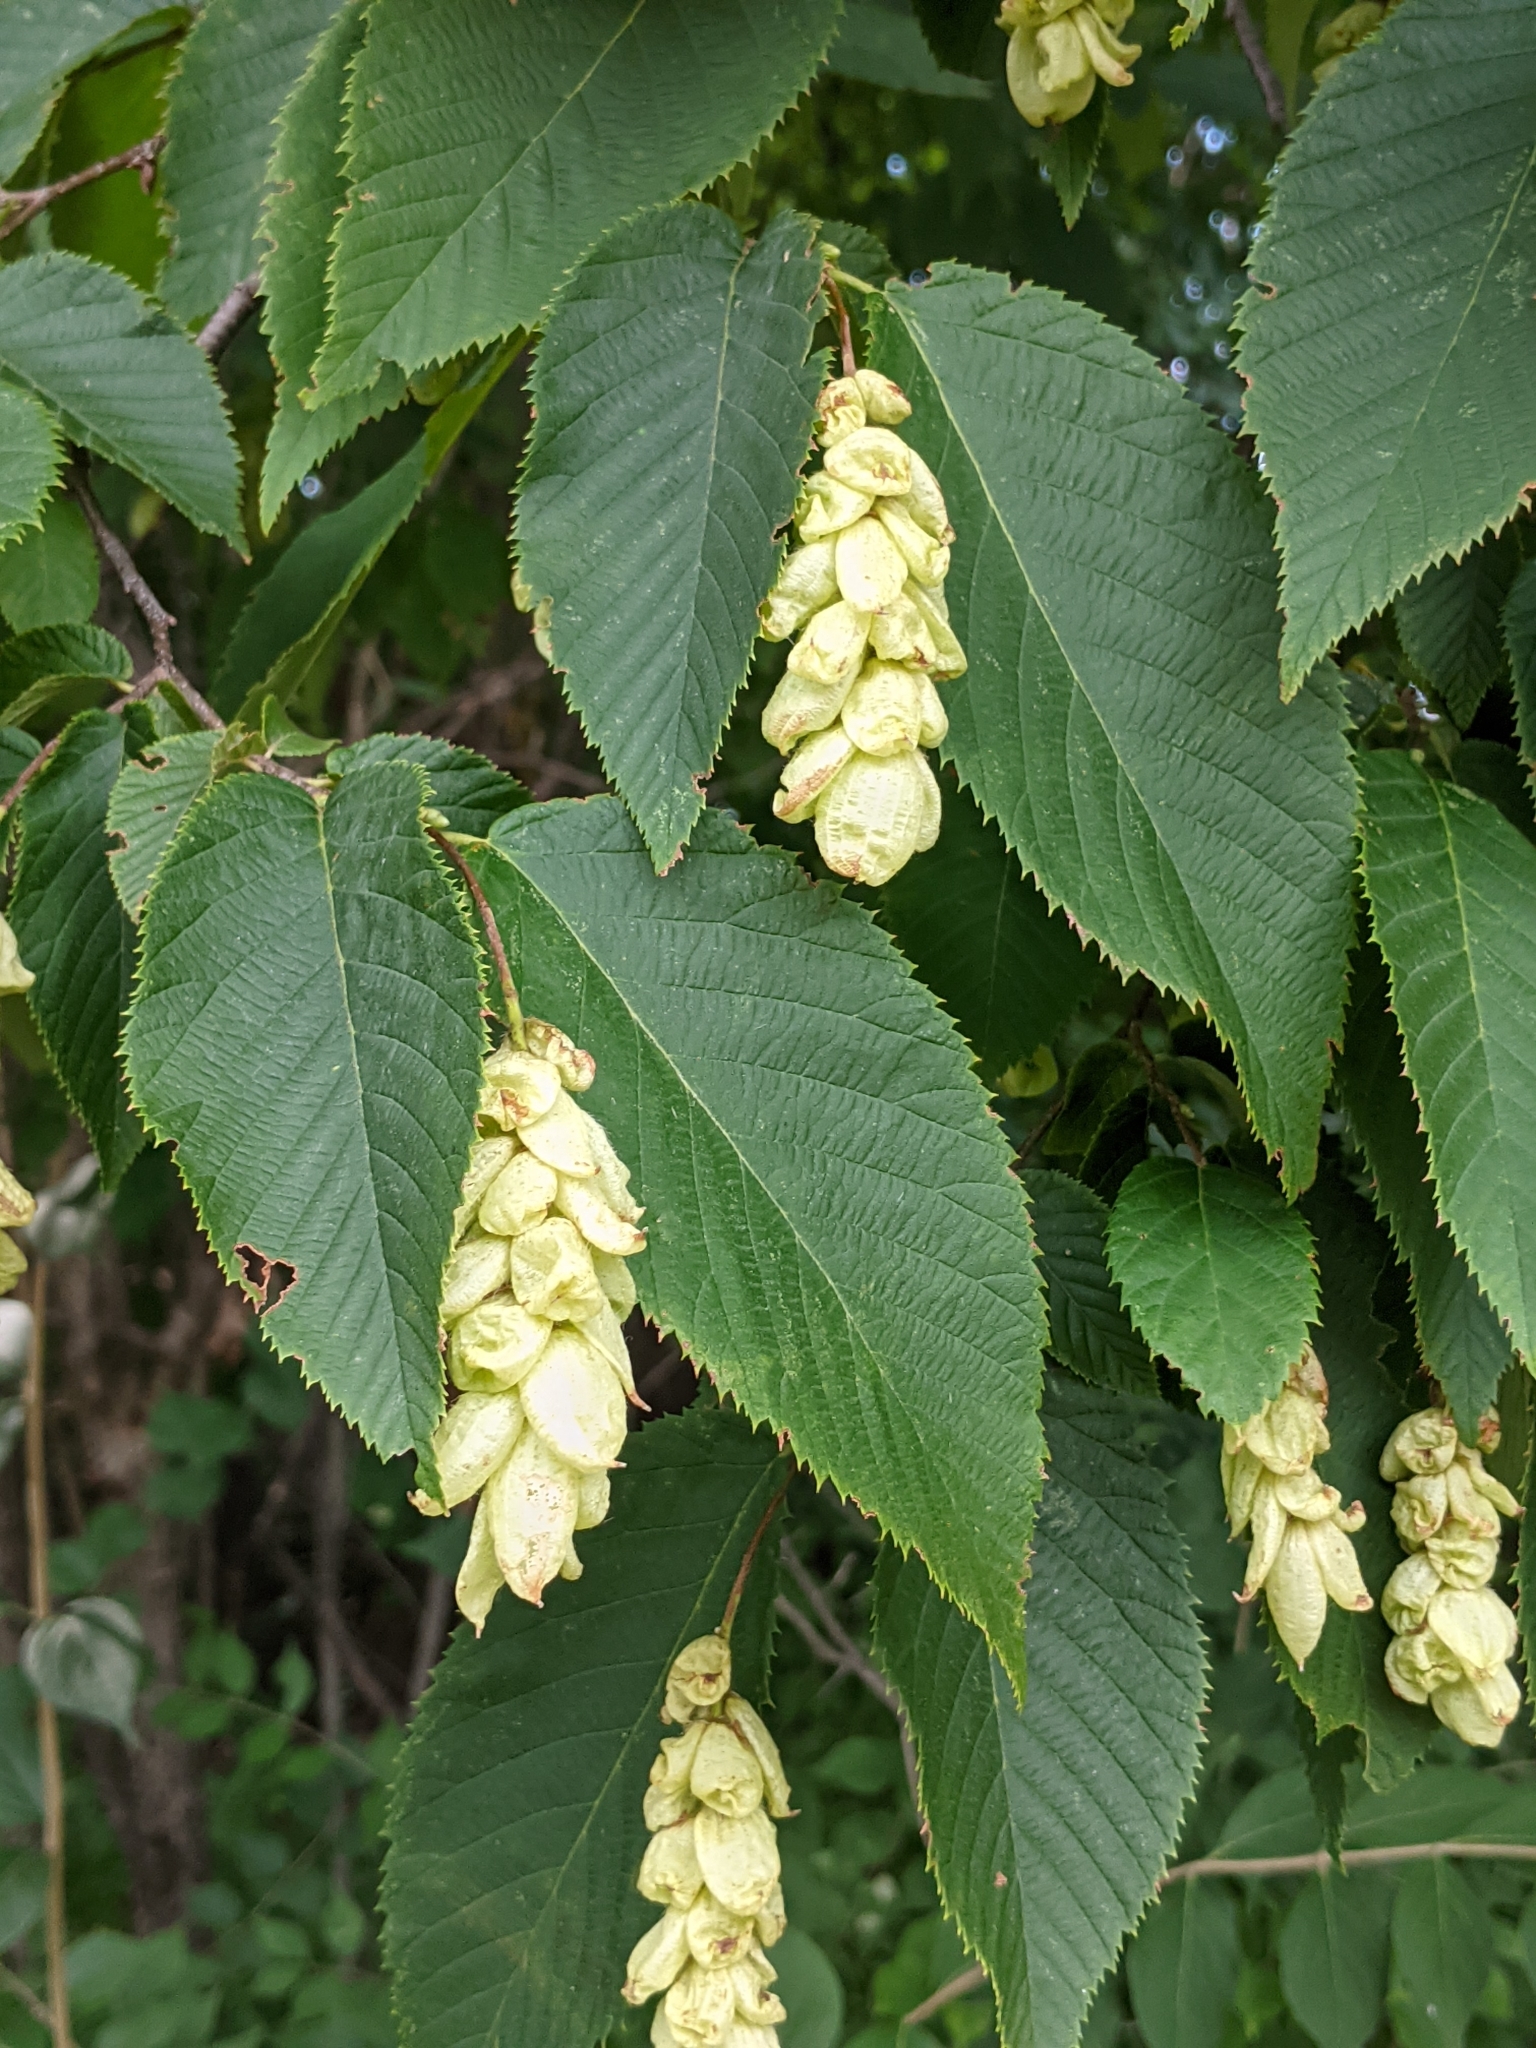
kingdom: Plantae
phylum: Tracheophyta
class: Magnoliopsida
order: Fagales
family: Betulaceae
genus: Ostrya
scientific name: Ostrya virginiana
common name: Ironwood
